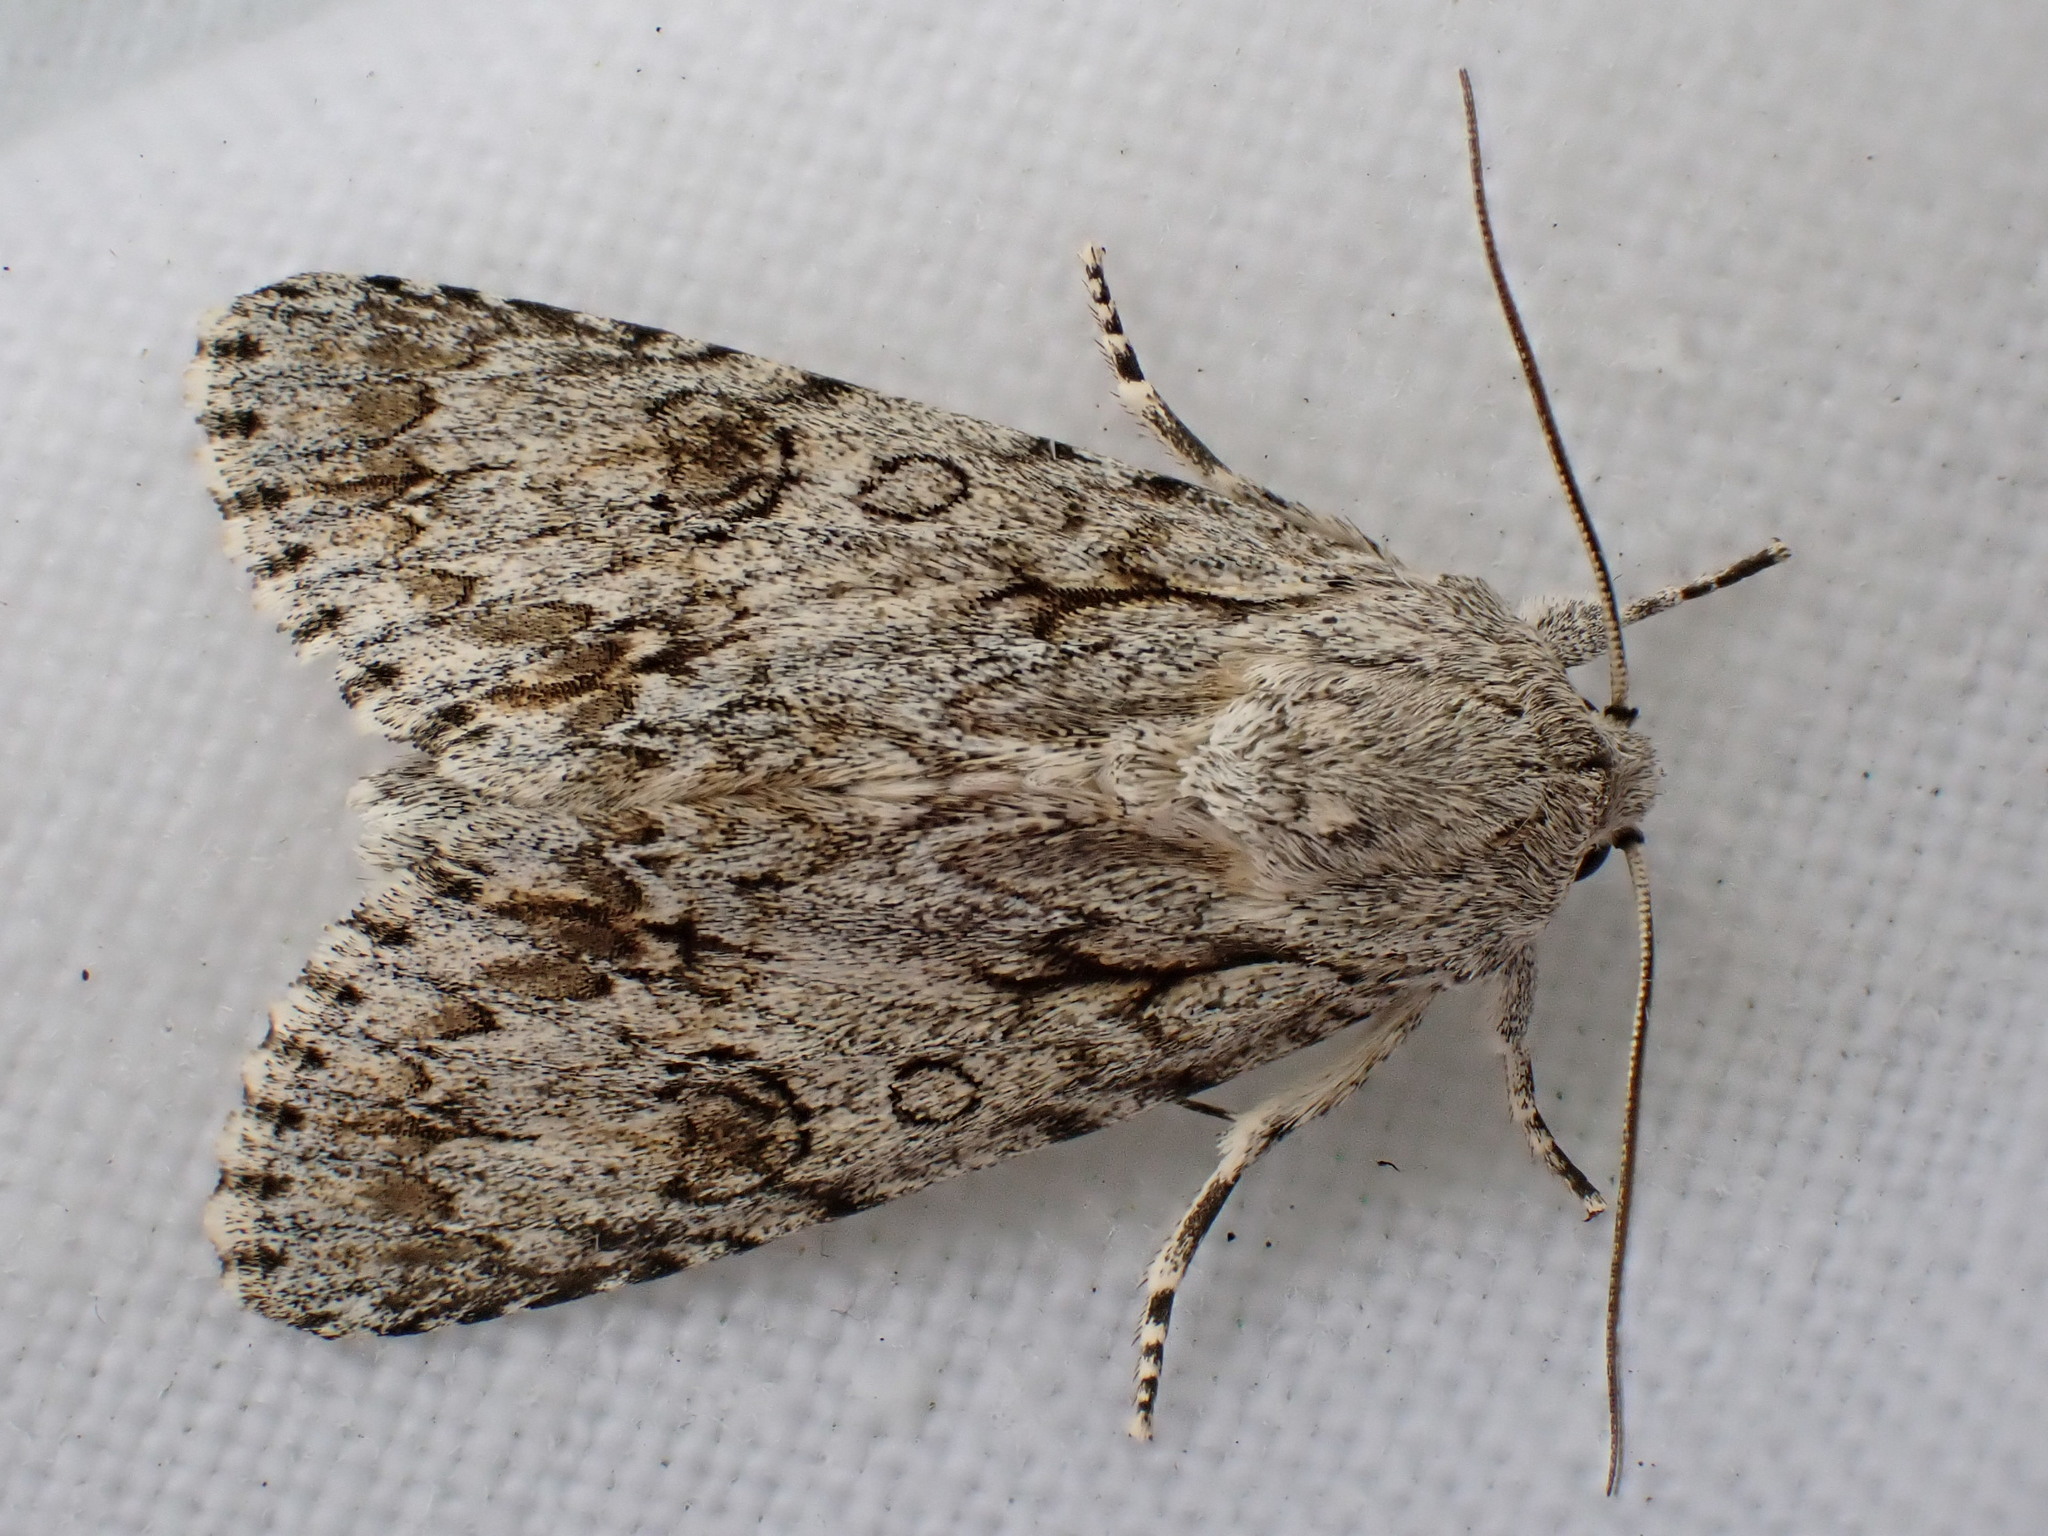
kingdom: Animalia
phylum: Arthropoda
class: Insecta
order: Lepidoptera
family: Noctuidae
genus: Acronicta
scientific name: Acronicta aceris
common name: Sycamore
